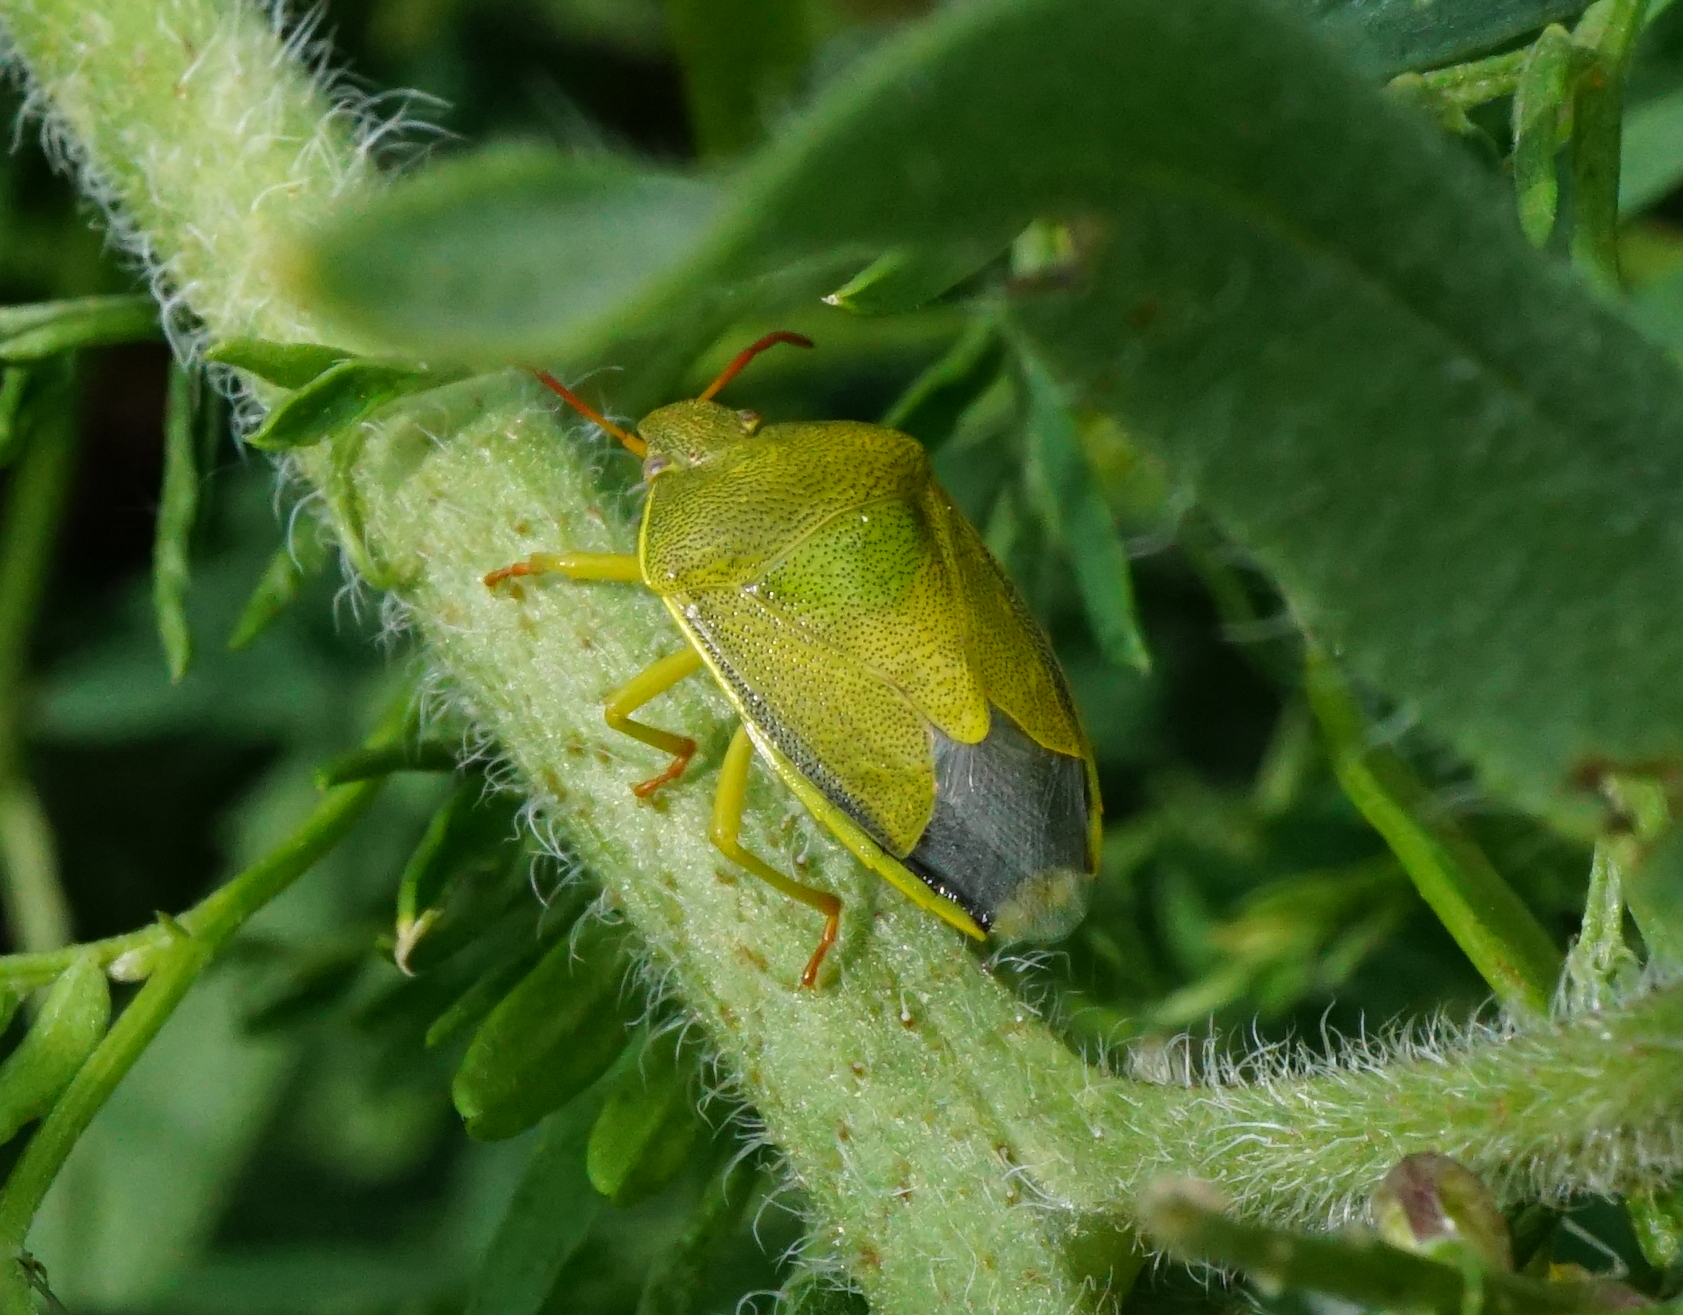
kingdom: Animalia
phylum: Arthropoda
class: Insecta
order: Hemiptera
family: Pentatomidae
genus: Piezodorus
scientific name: Piezodorus lituratus
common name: Stink bug
